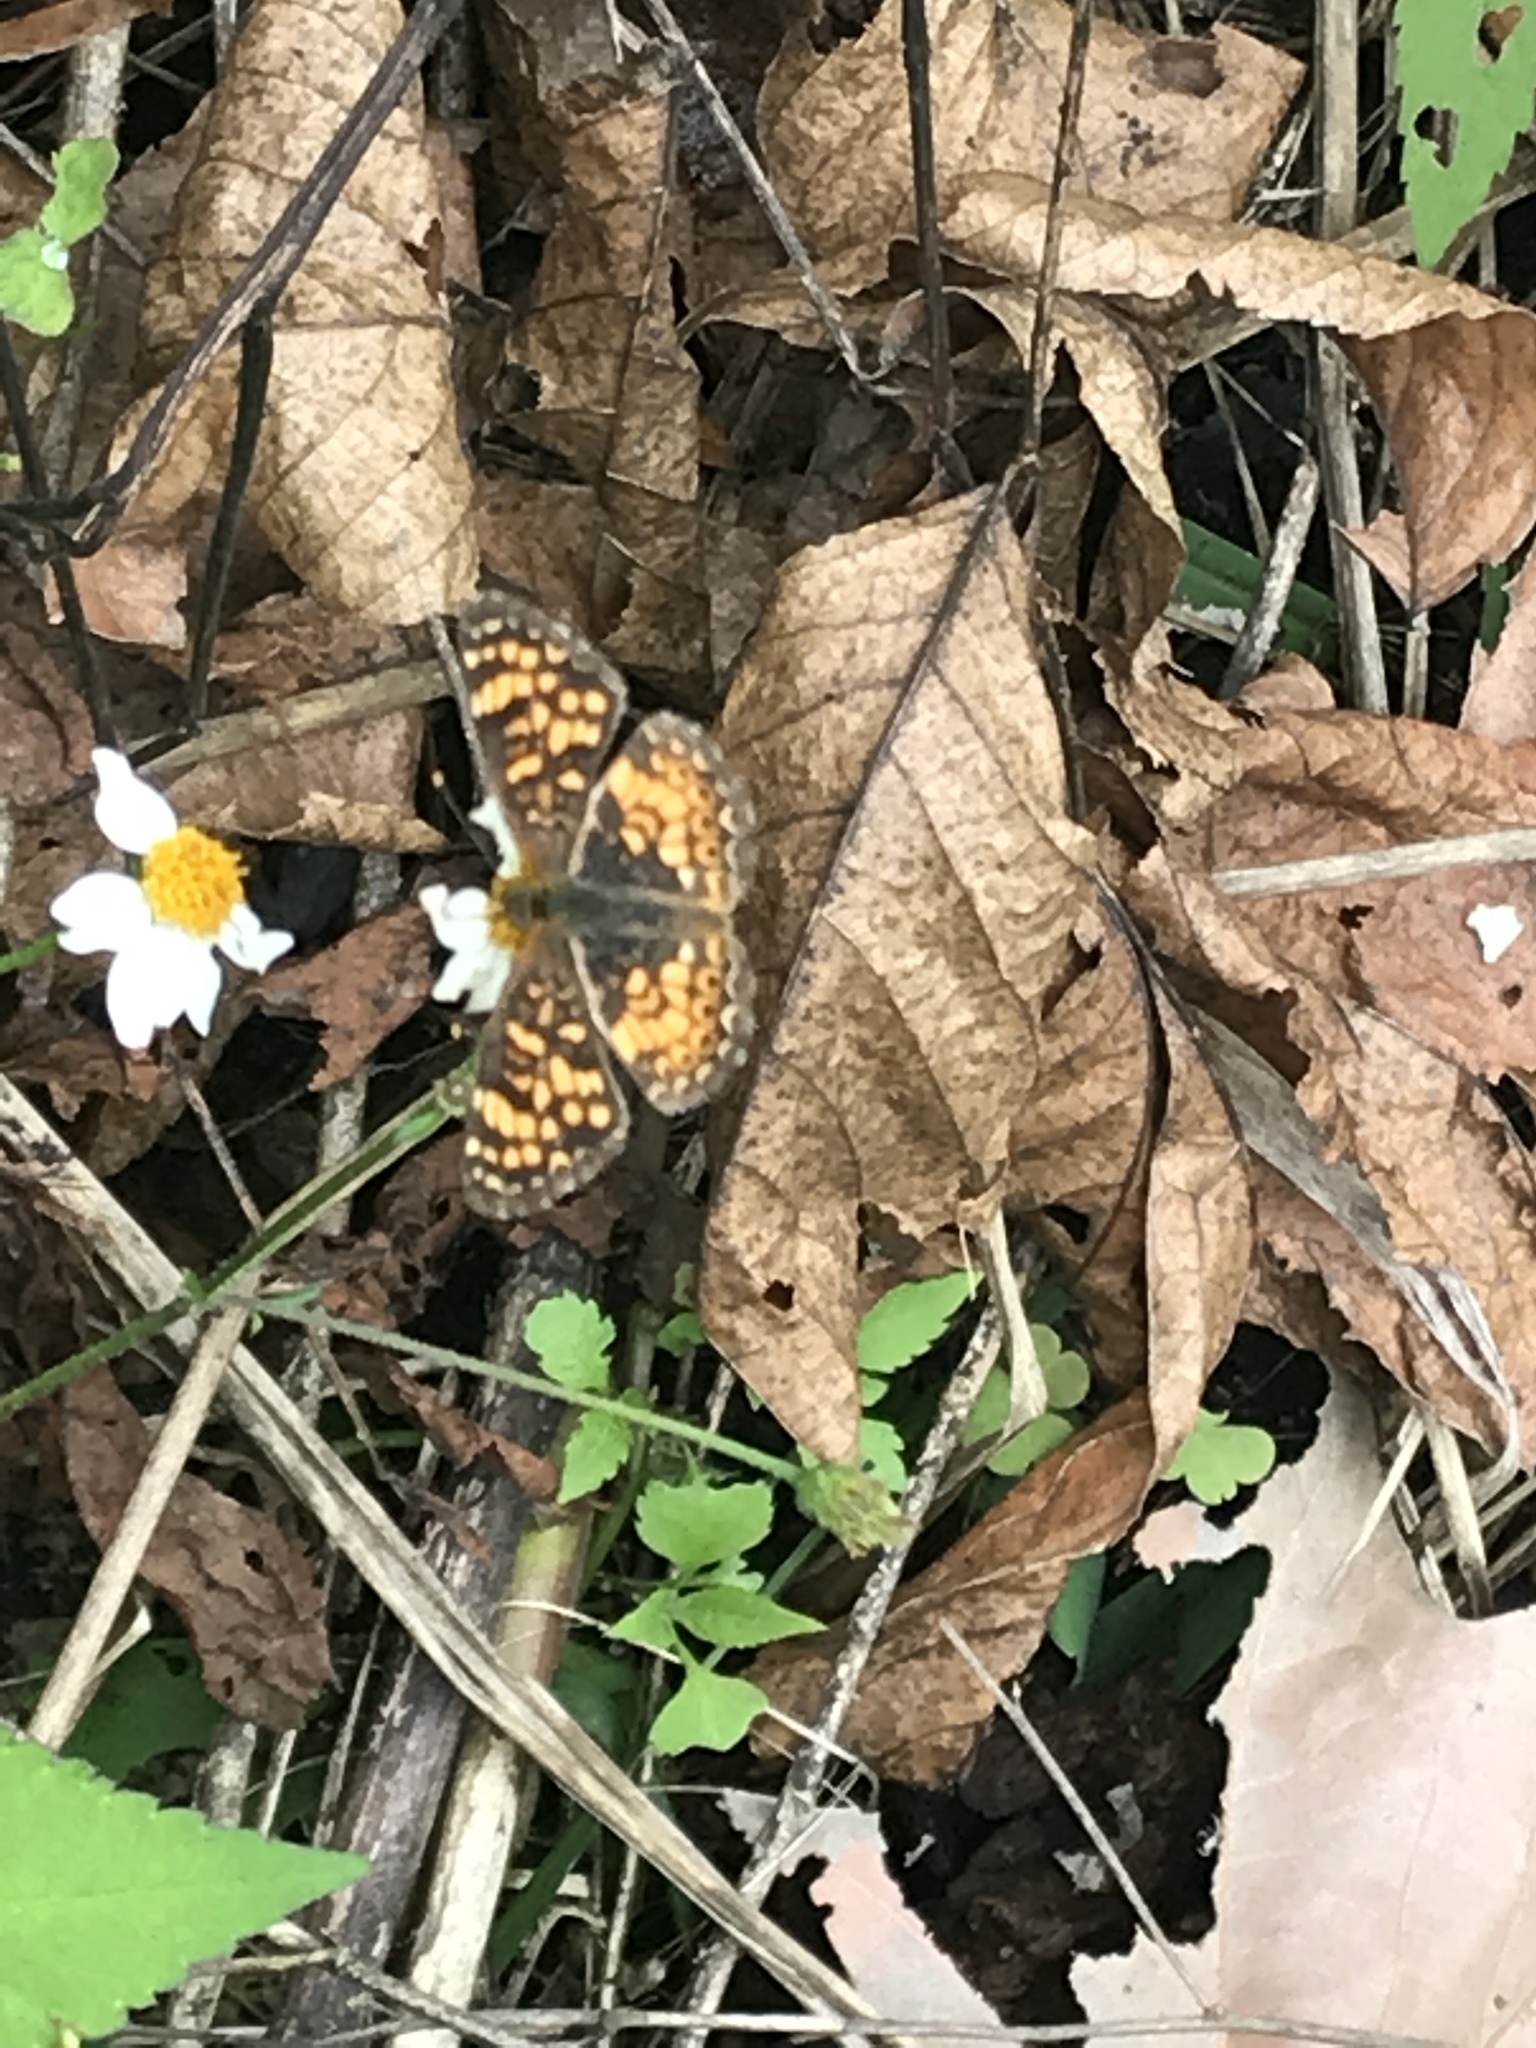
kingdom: Animalia
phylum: Arthropoda
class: Insecta
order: Lepidoptera
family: Nymphalidae
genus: Phyciodes
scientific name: Phyciodes vesta
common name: Vesta crescent
